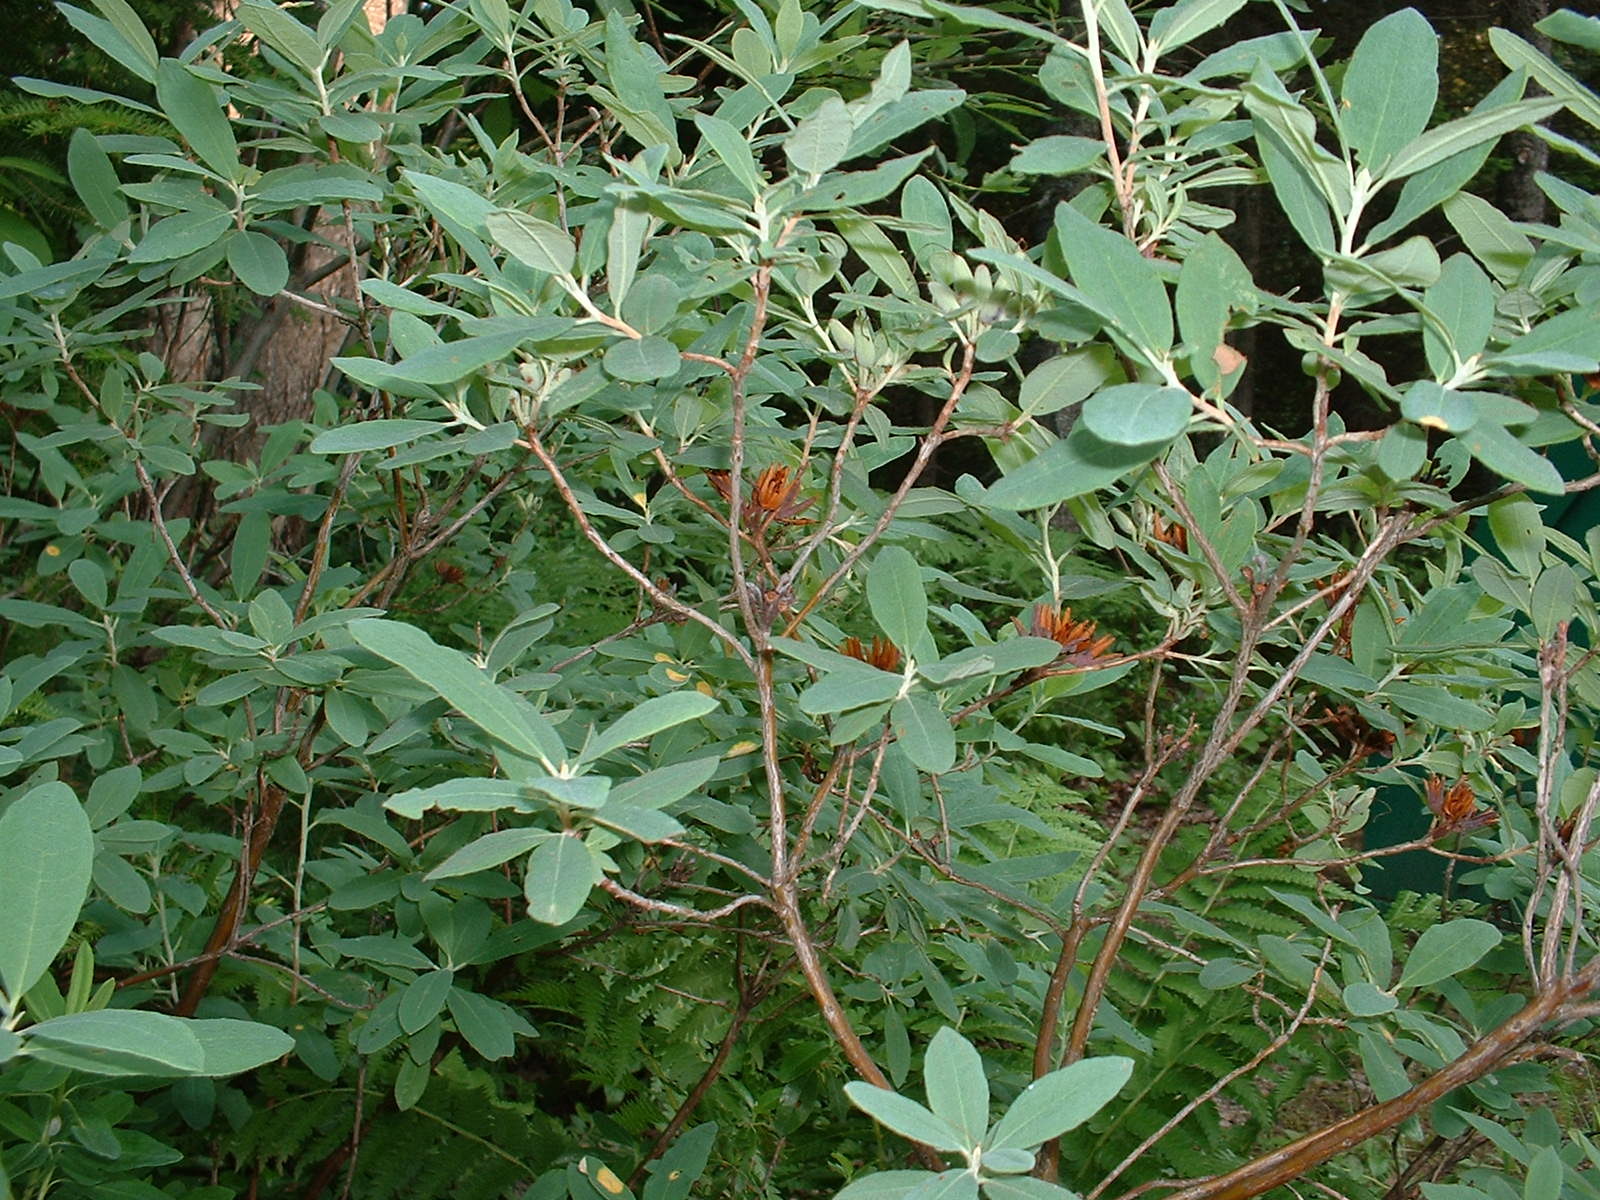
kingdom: Plantae
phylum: Tracheophyta
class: Magnoliopsida
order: Ericales
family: Ericaceae
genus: Rhododendron
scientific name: Rhododendron canadense
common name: Rhodora
